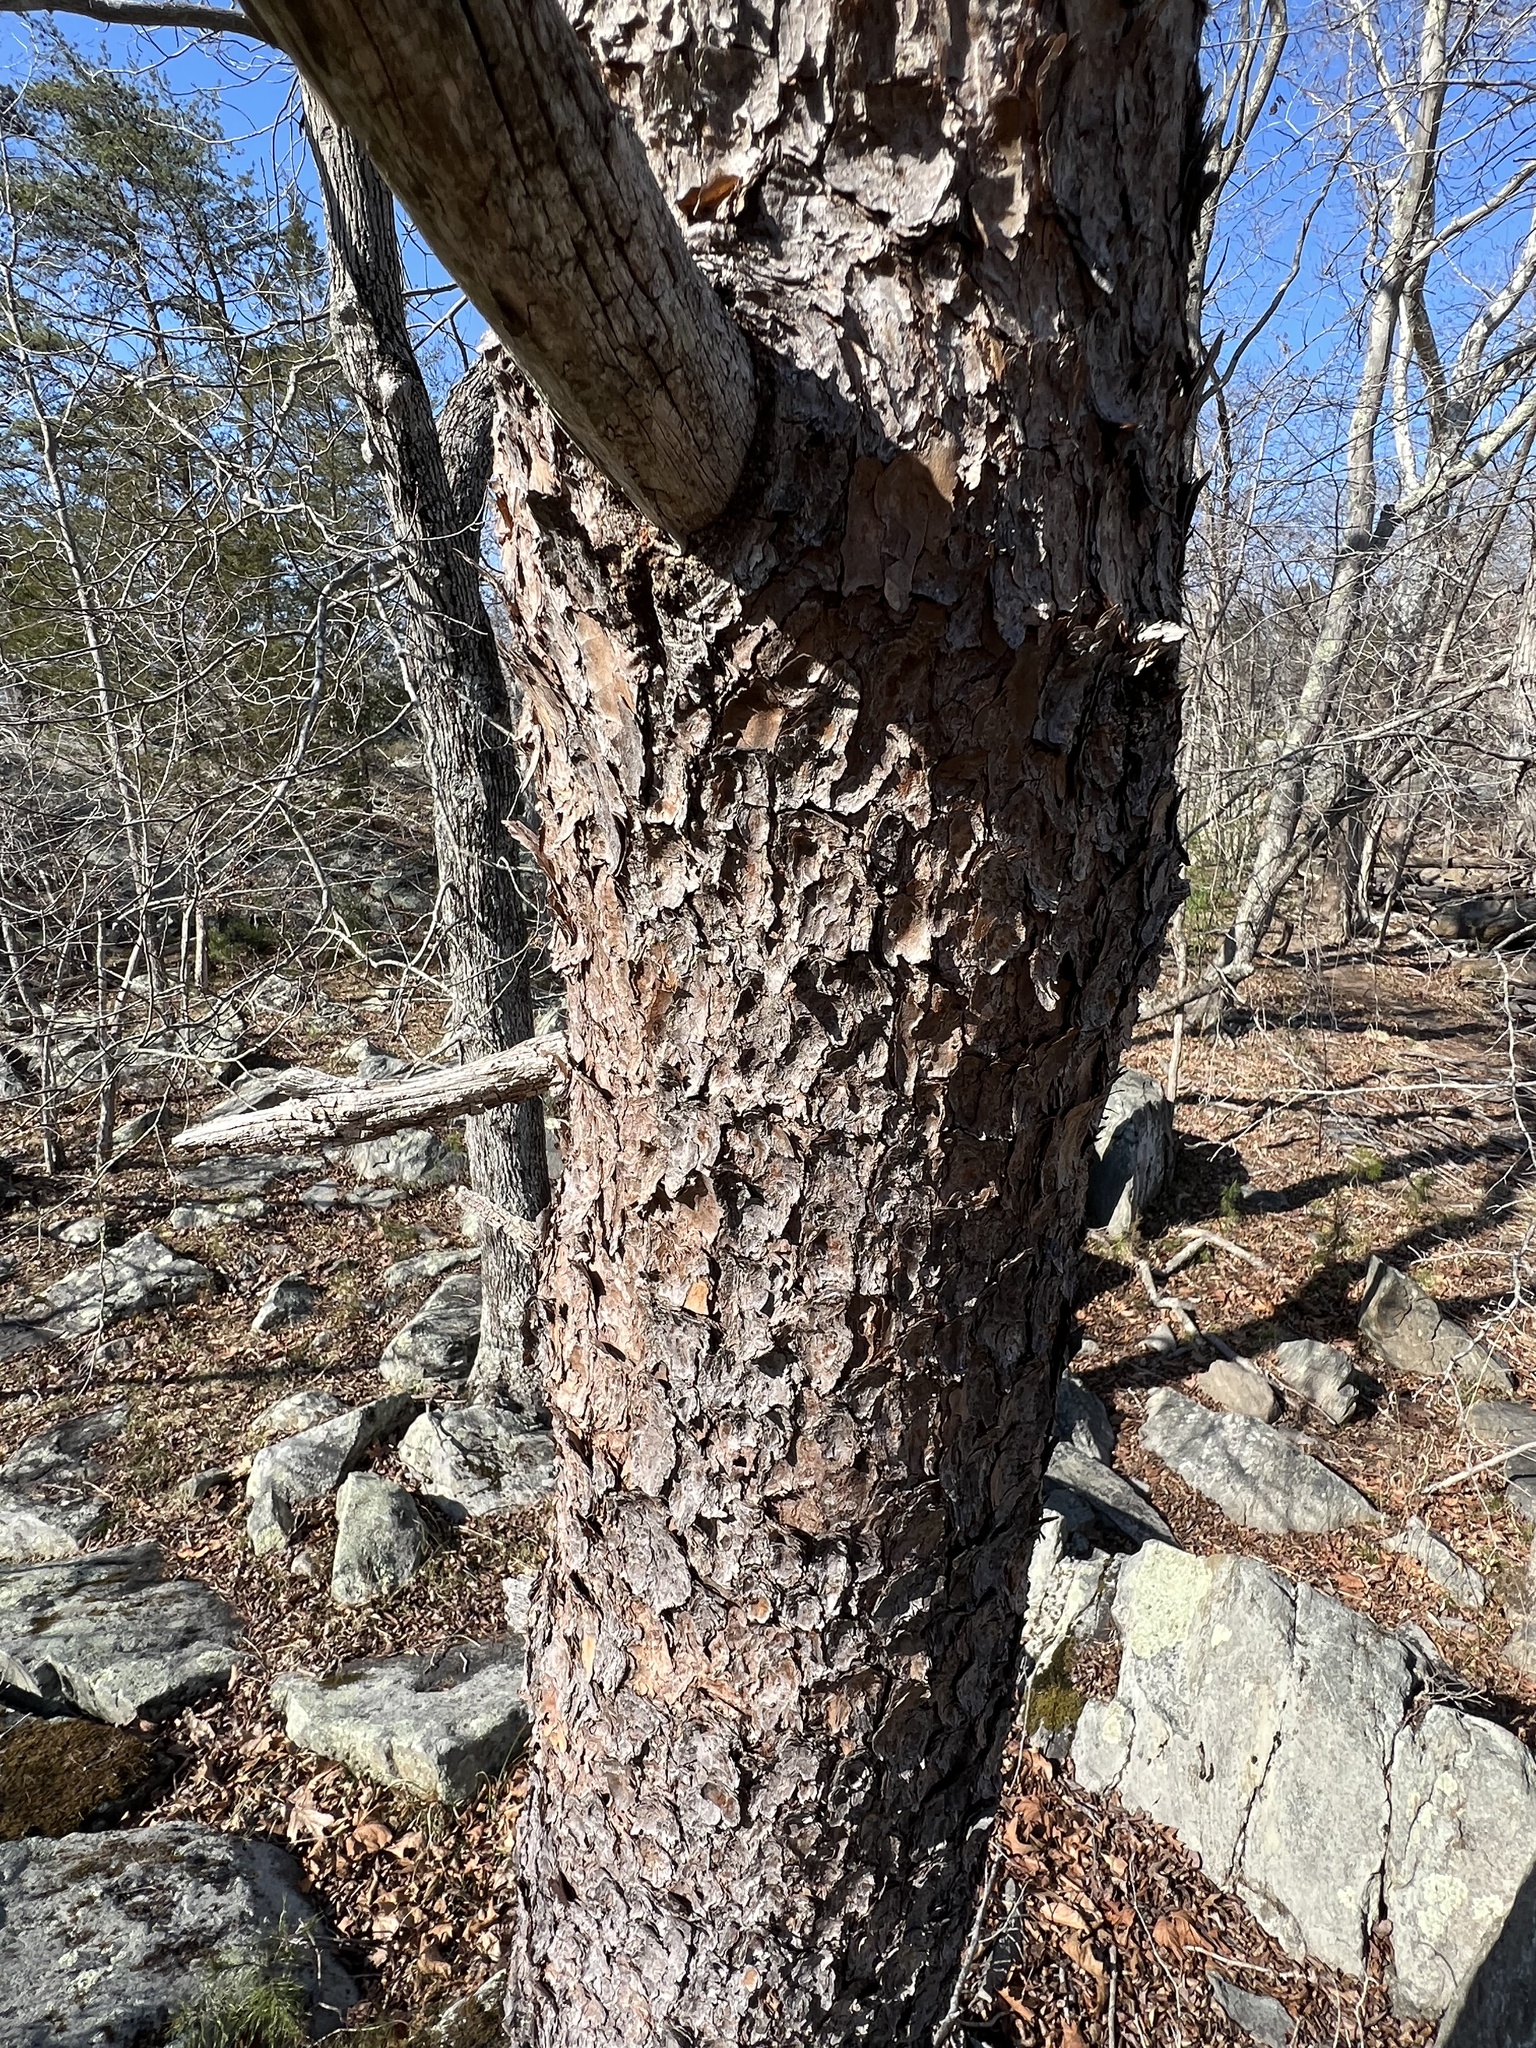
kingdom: Plantae
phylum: Tracheophyta
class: Pinopsida
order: Pinales
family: Pinaceae
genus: Pinus
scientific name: Pinus virginiana
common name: Scrub pine
